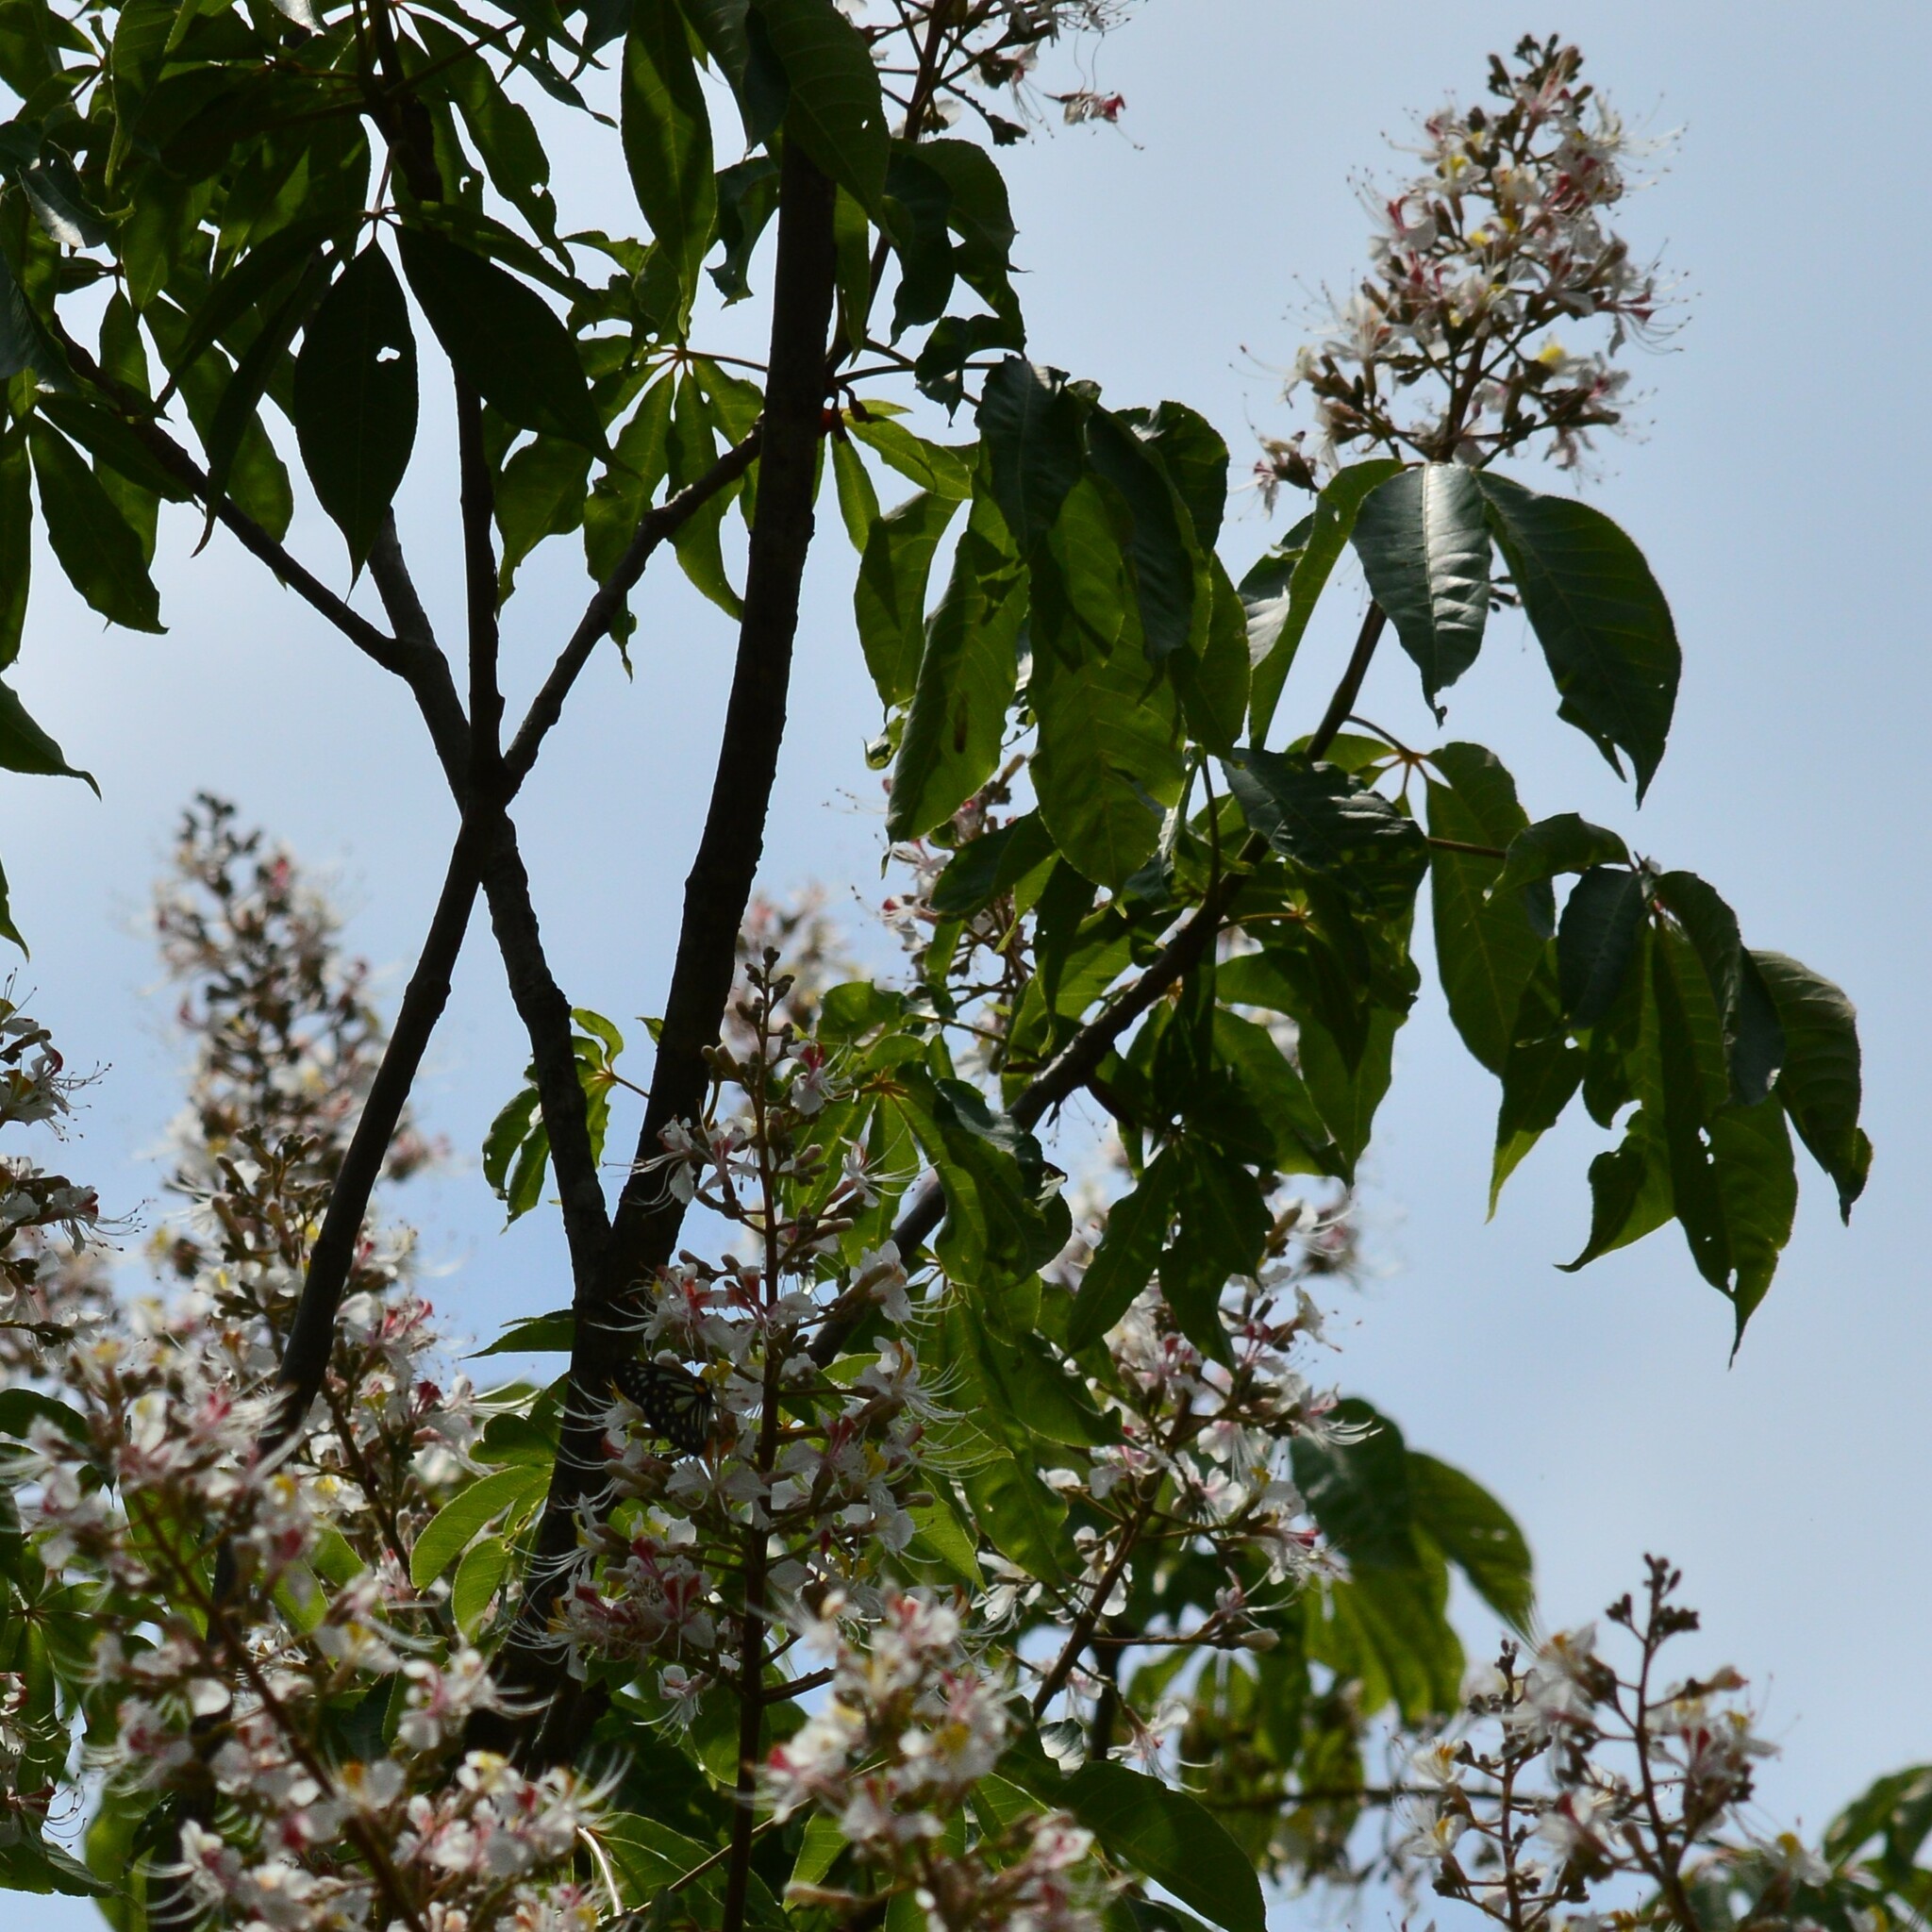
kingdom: Plantae
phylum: Tracheophyta
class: Magnoliopsida
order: Sapindales
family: Sapindaceae
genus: Aesculus
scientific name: Aesculus indica
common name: Indian horse-chestnut
